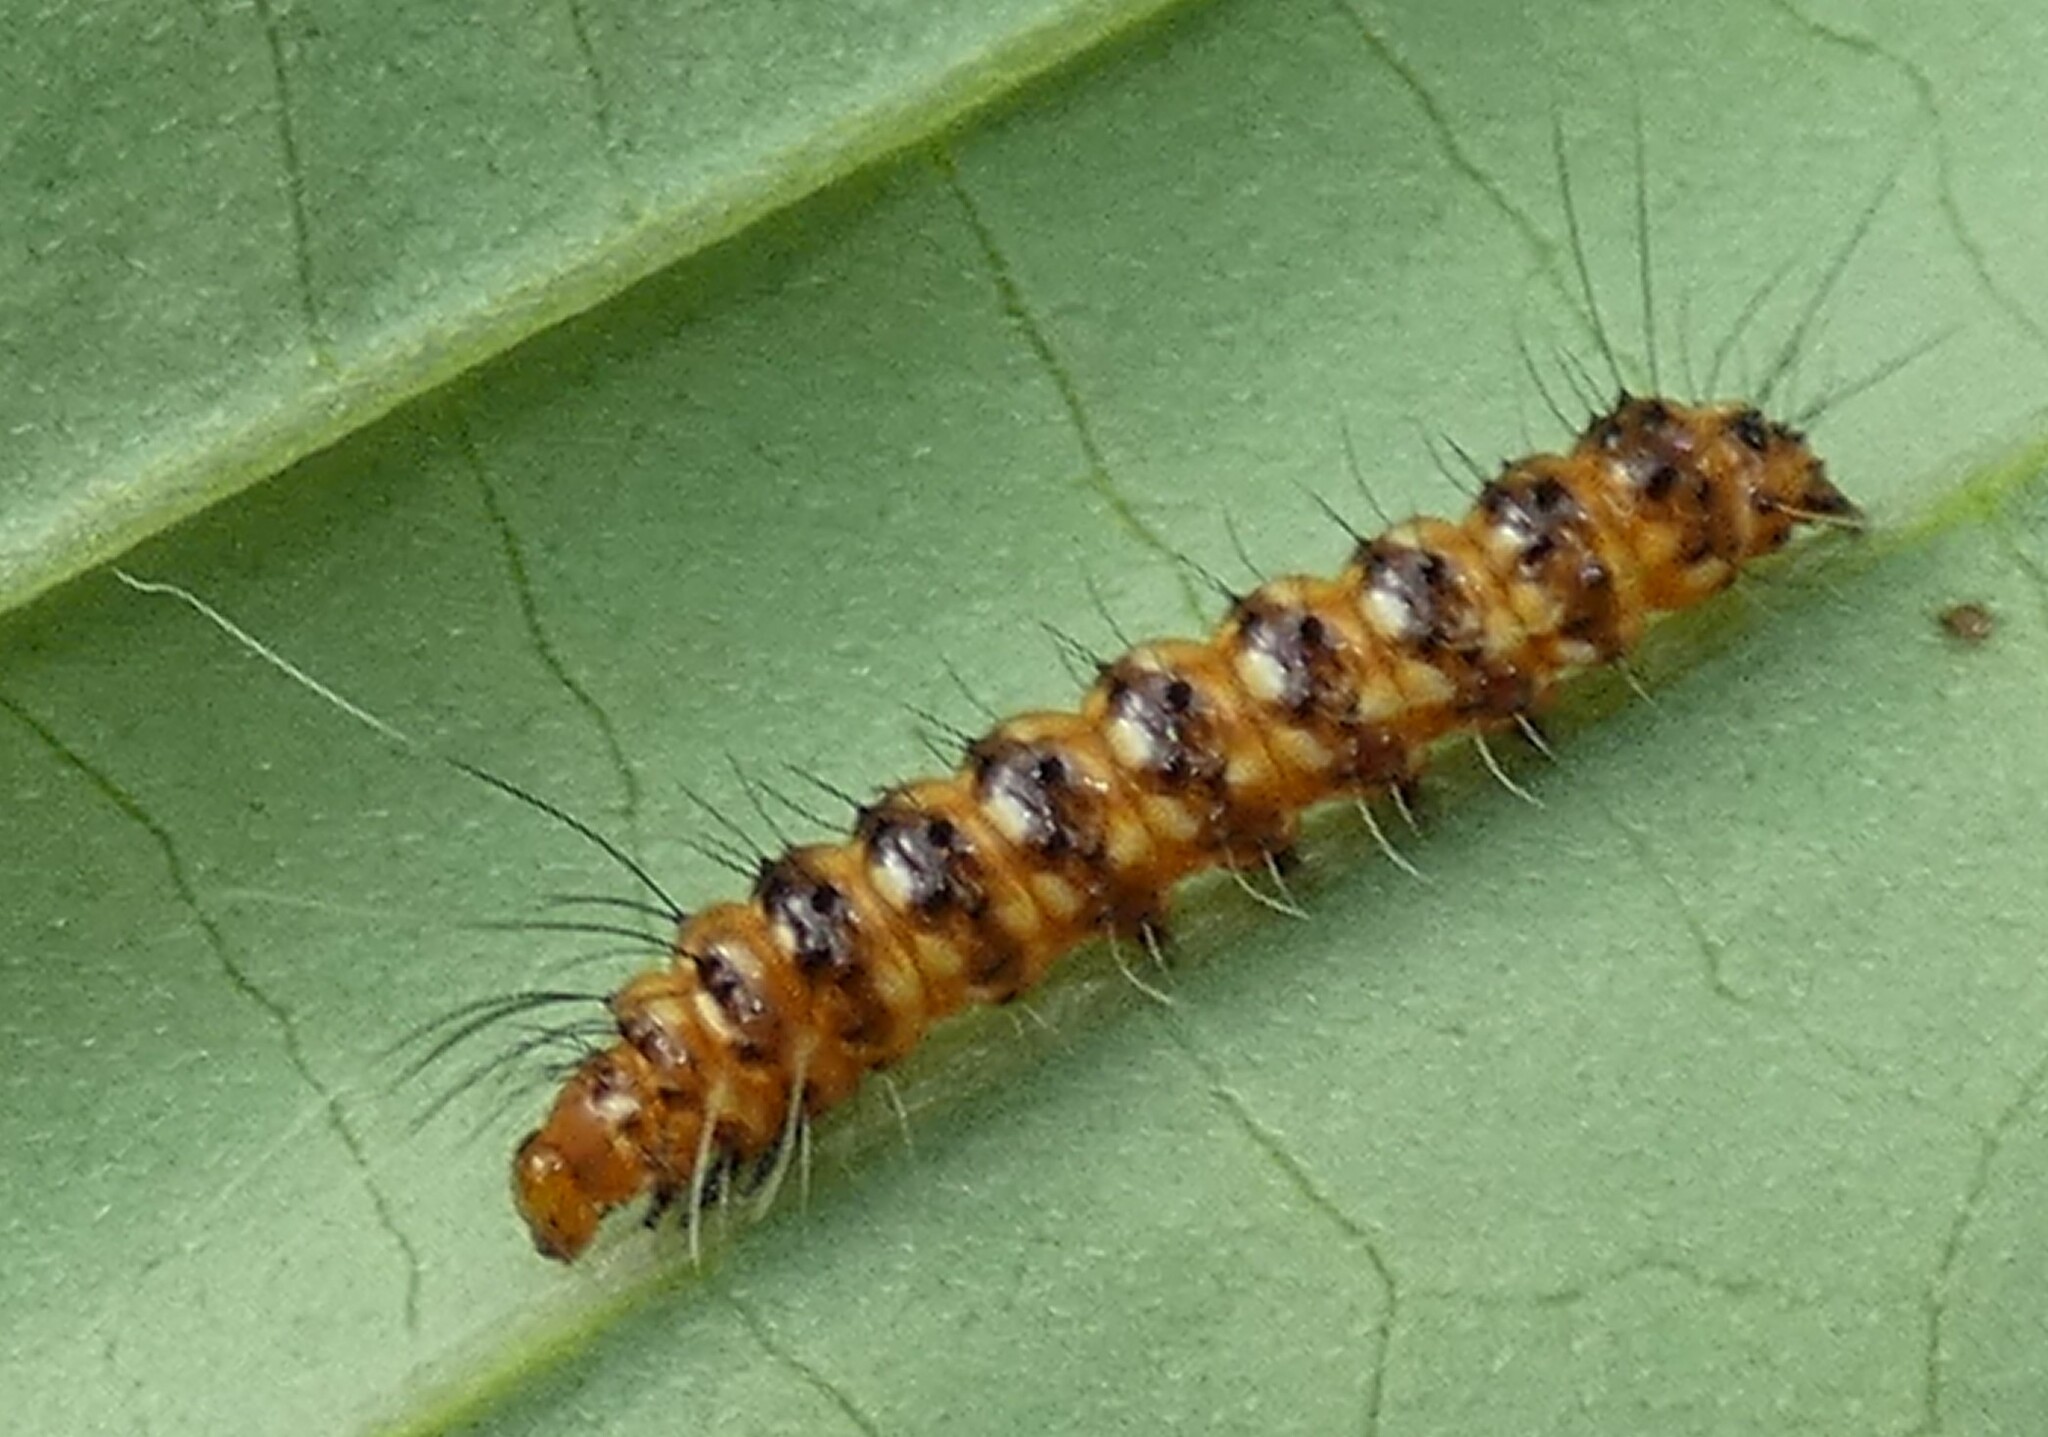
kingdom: Animalia
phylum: Arthropoda
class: Insecta
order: Lepidoptera
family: Erebidae
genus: Utetheisa
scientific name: Utetheisa ornatrix
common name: Beautiful utetheisa
